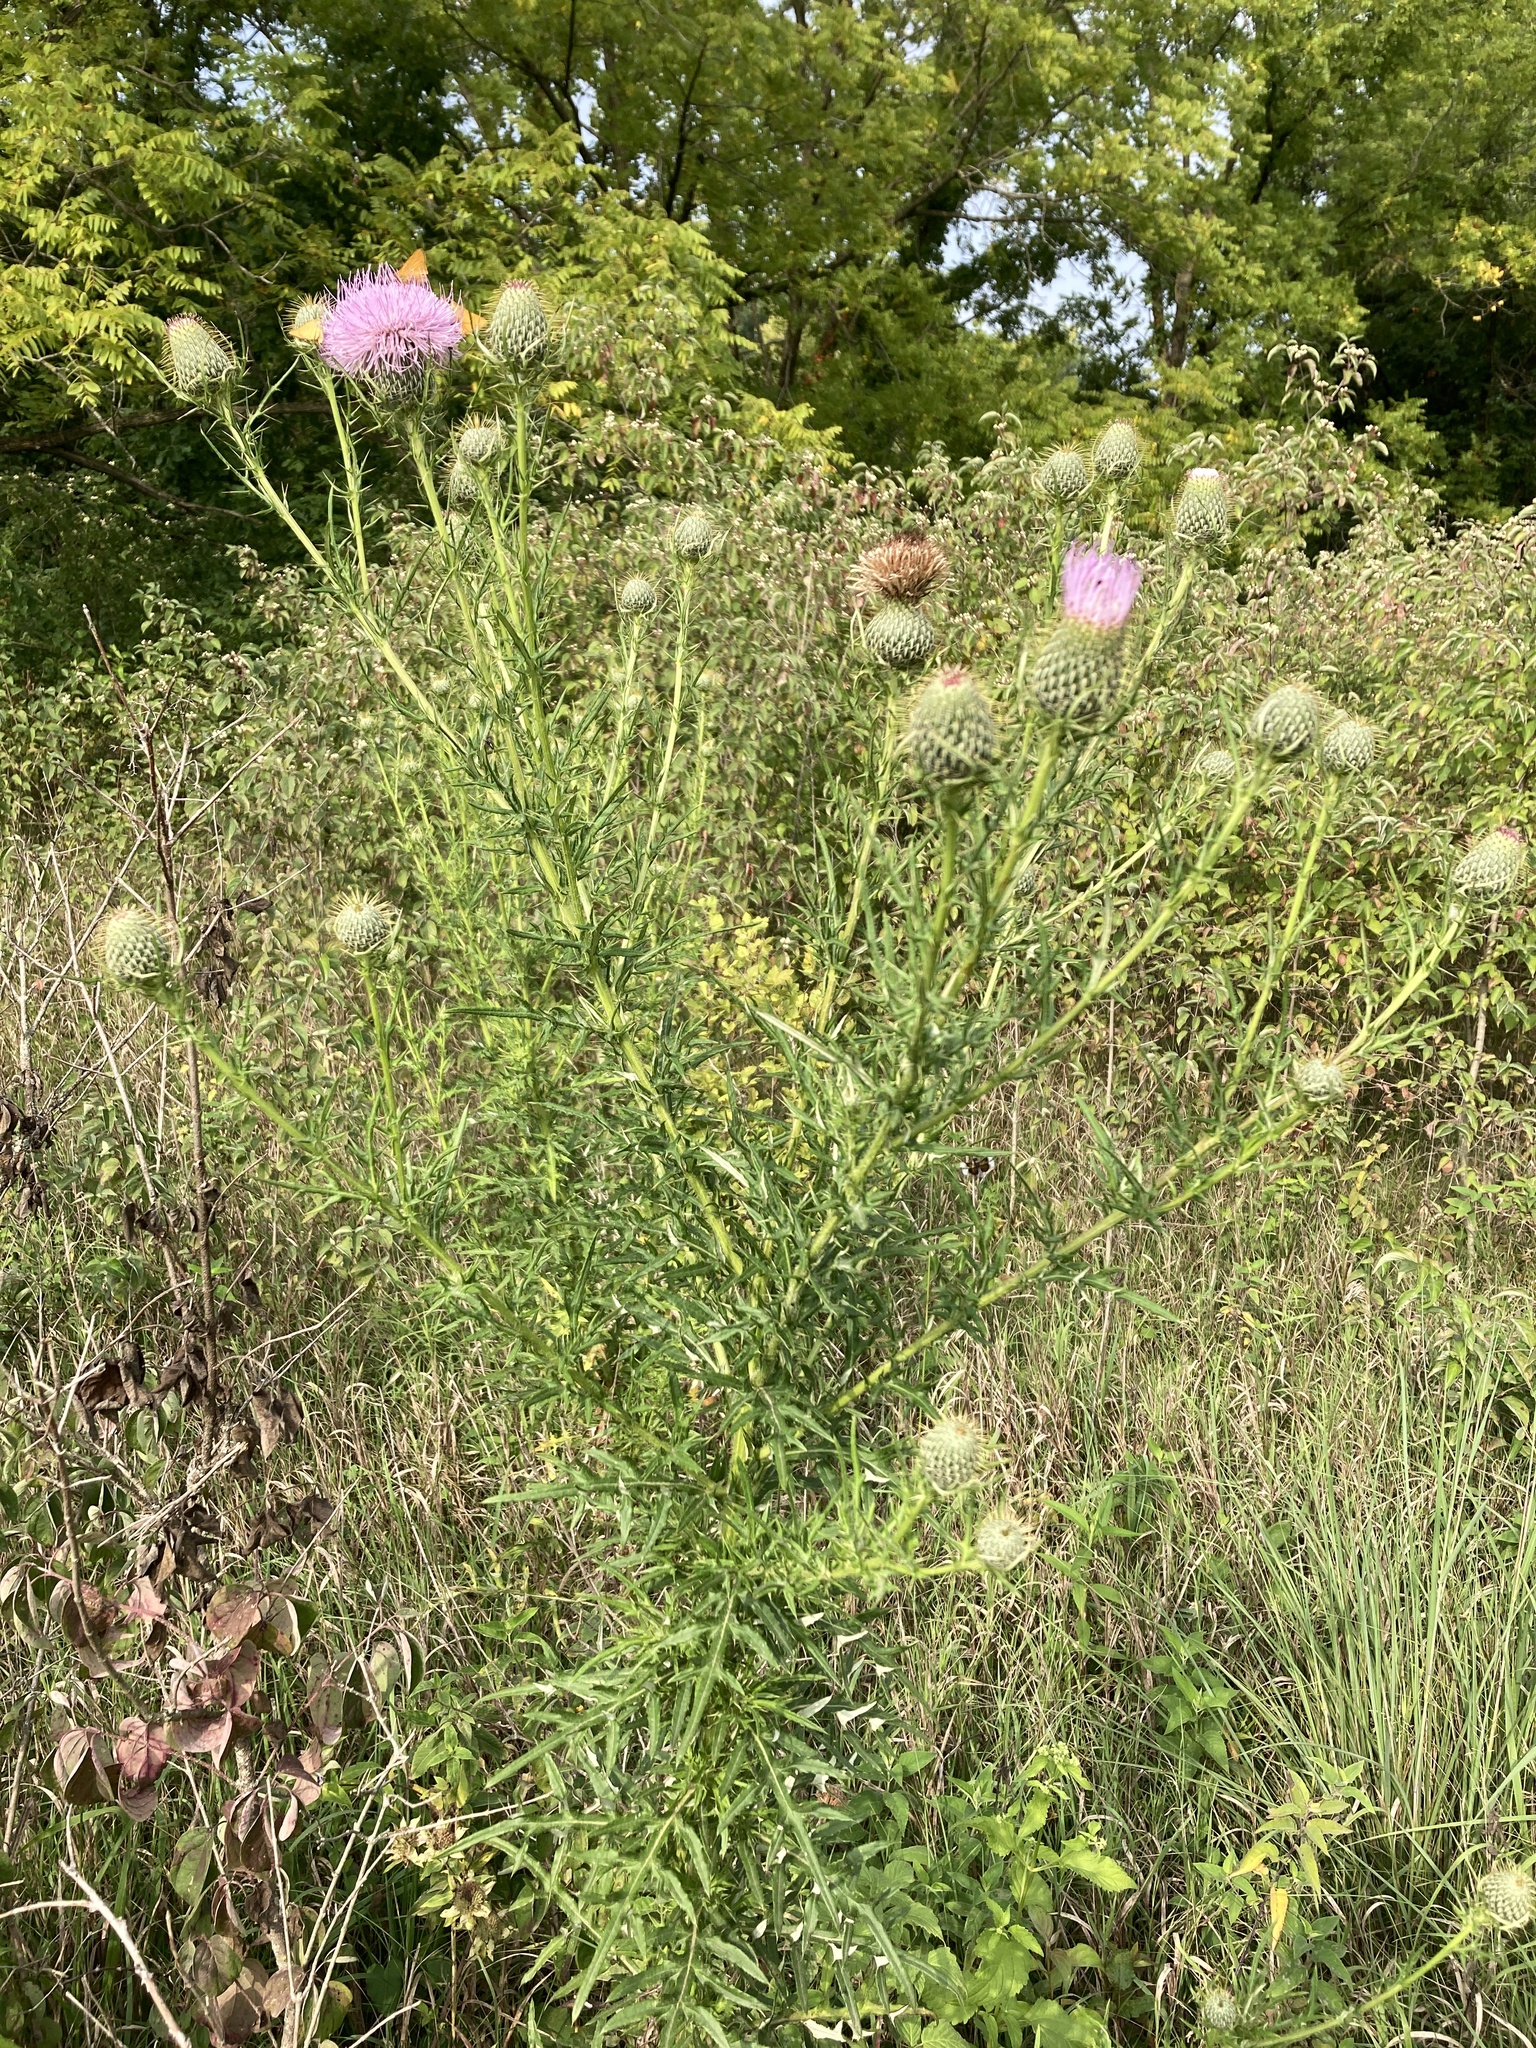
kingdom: Plantae
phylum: Tracheophyta
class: Magnoliopsida
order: Asterales
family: Asteraceae
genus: Cirsium
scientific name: Cirsium discolor
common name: Field thistle
